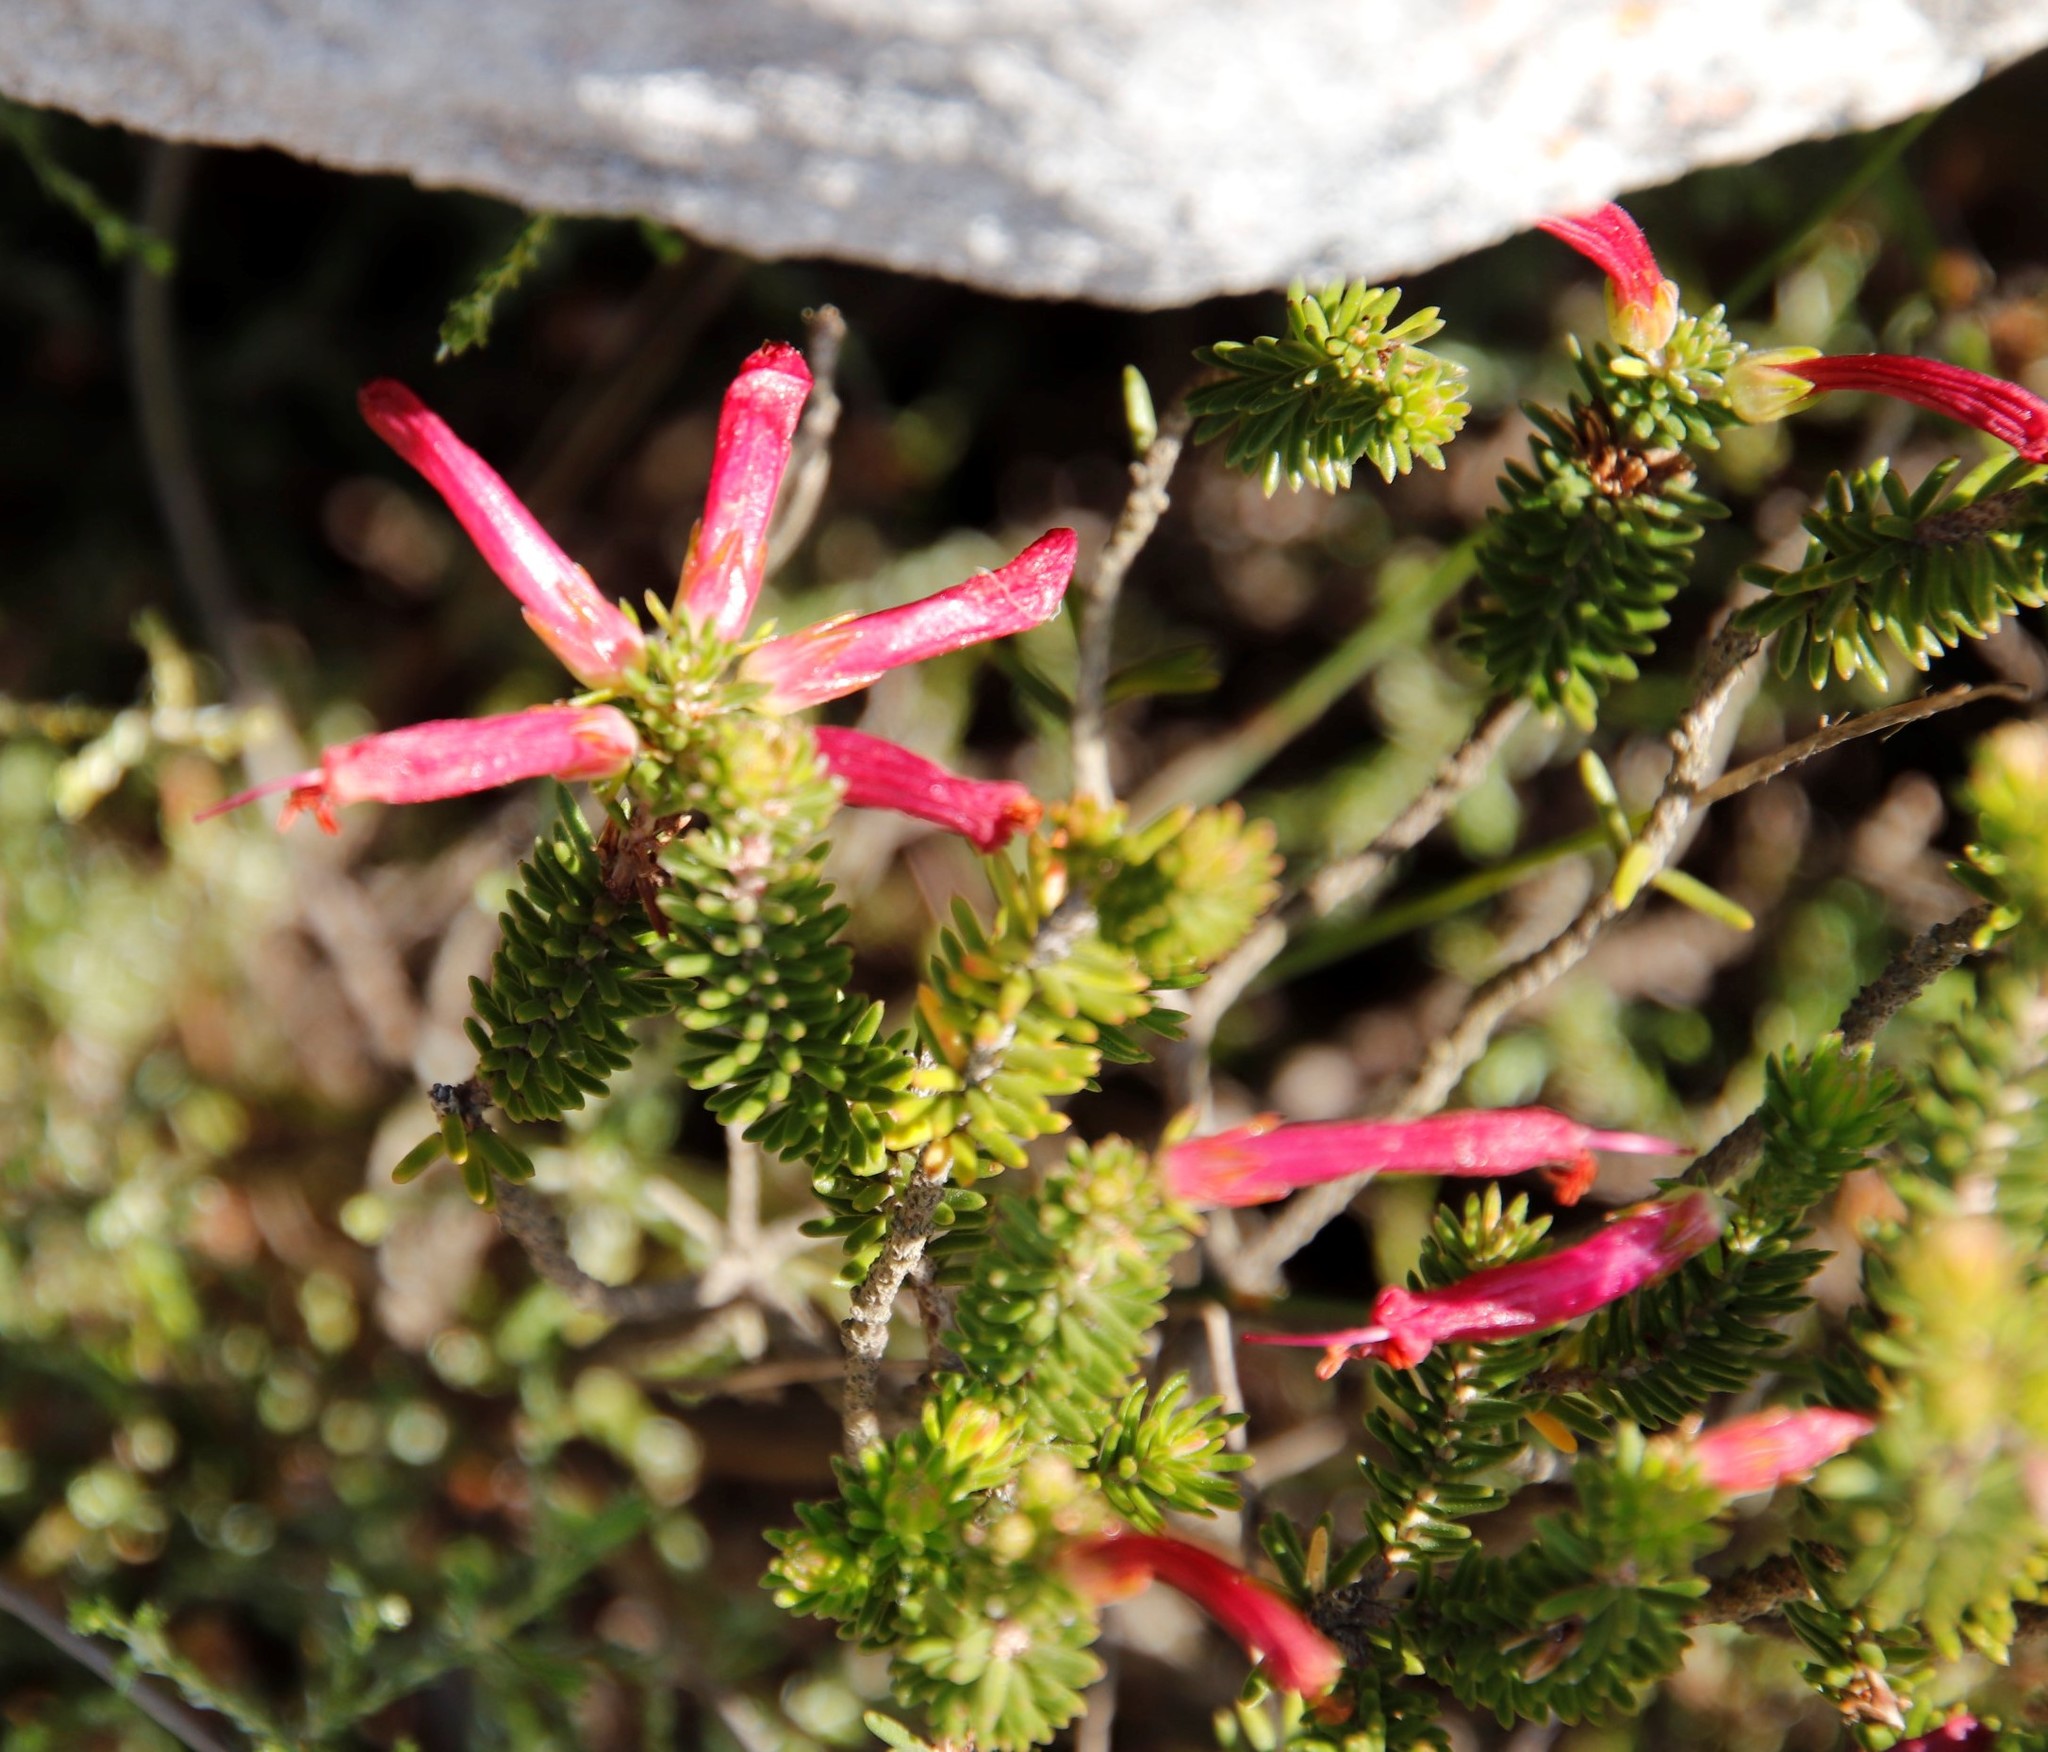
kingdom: Plantae
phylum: Tracheophyta
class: Magnoliopsida
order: Ericales
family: Ericaceae
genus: Erica
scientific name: Erica abietina
